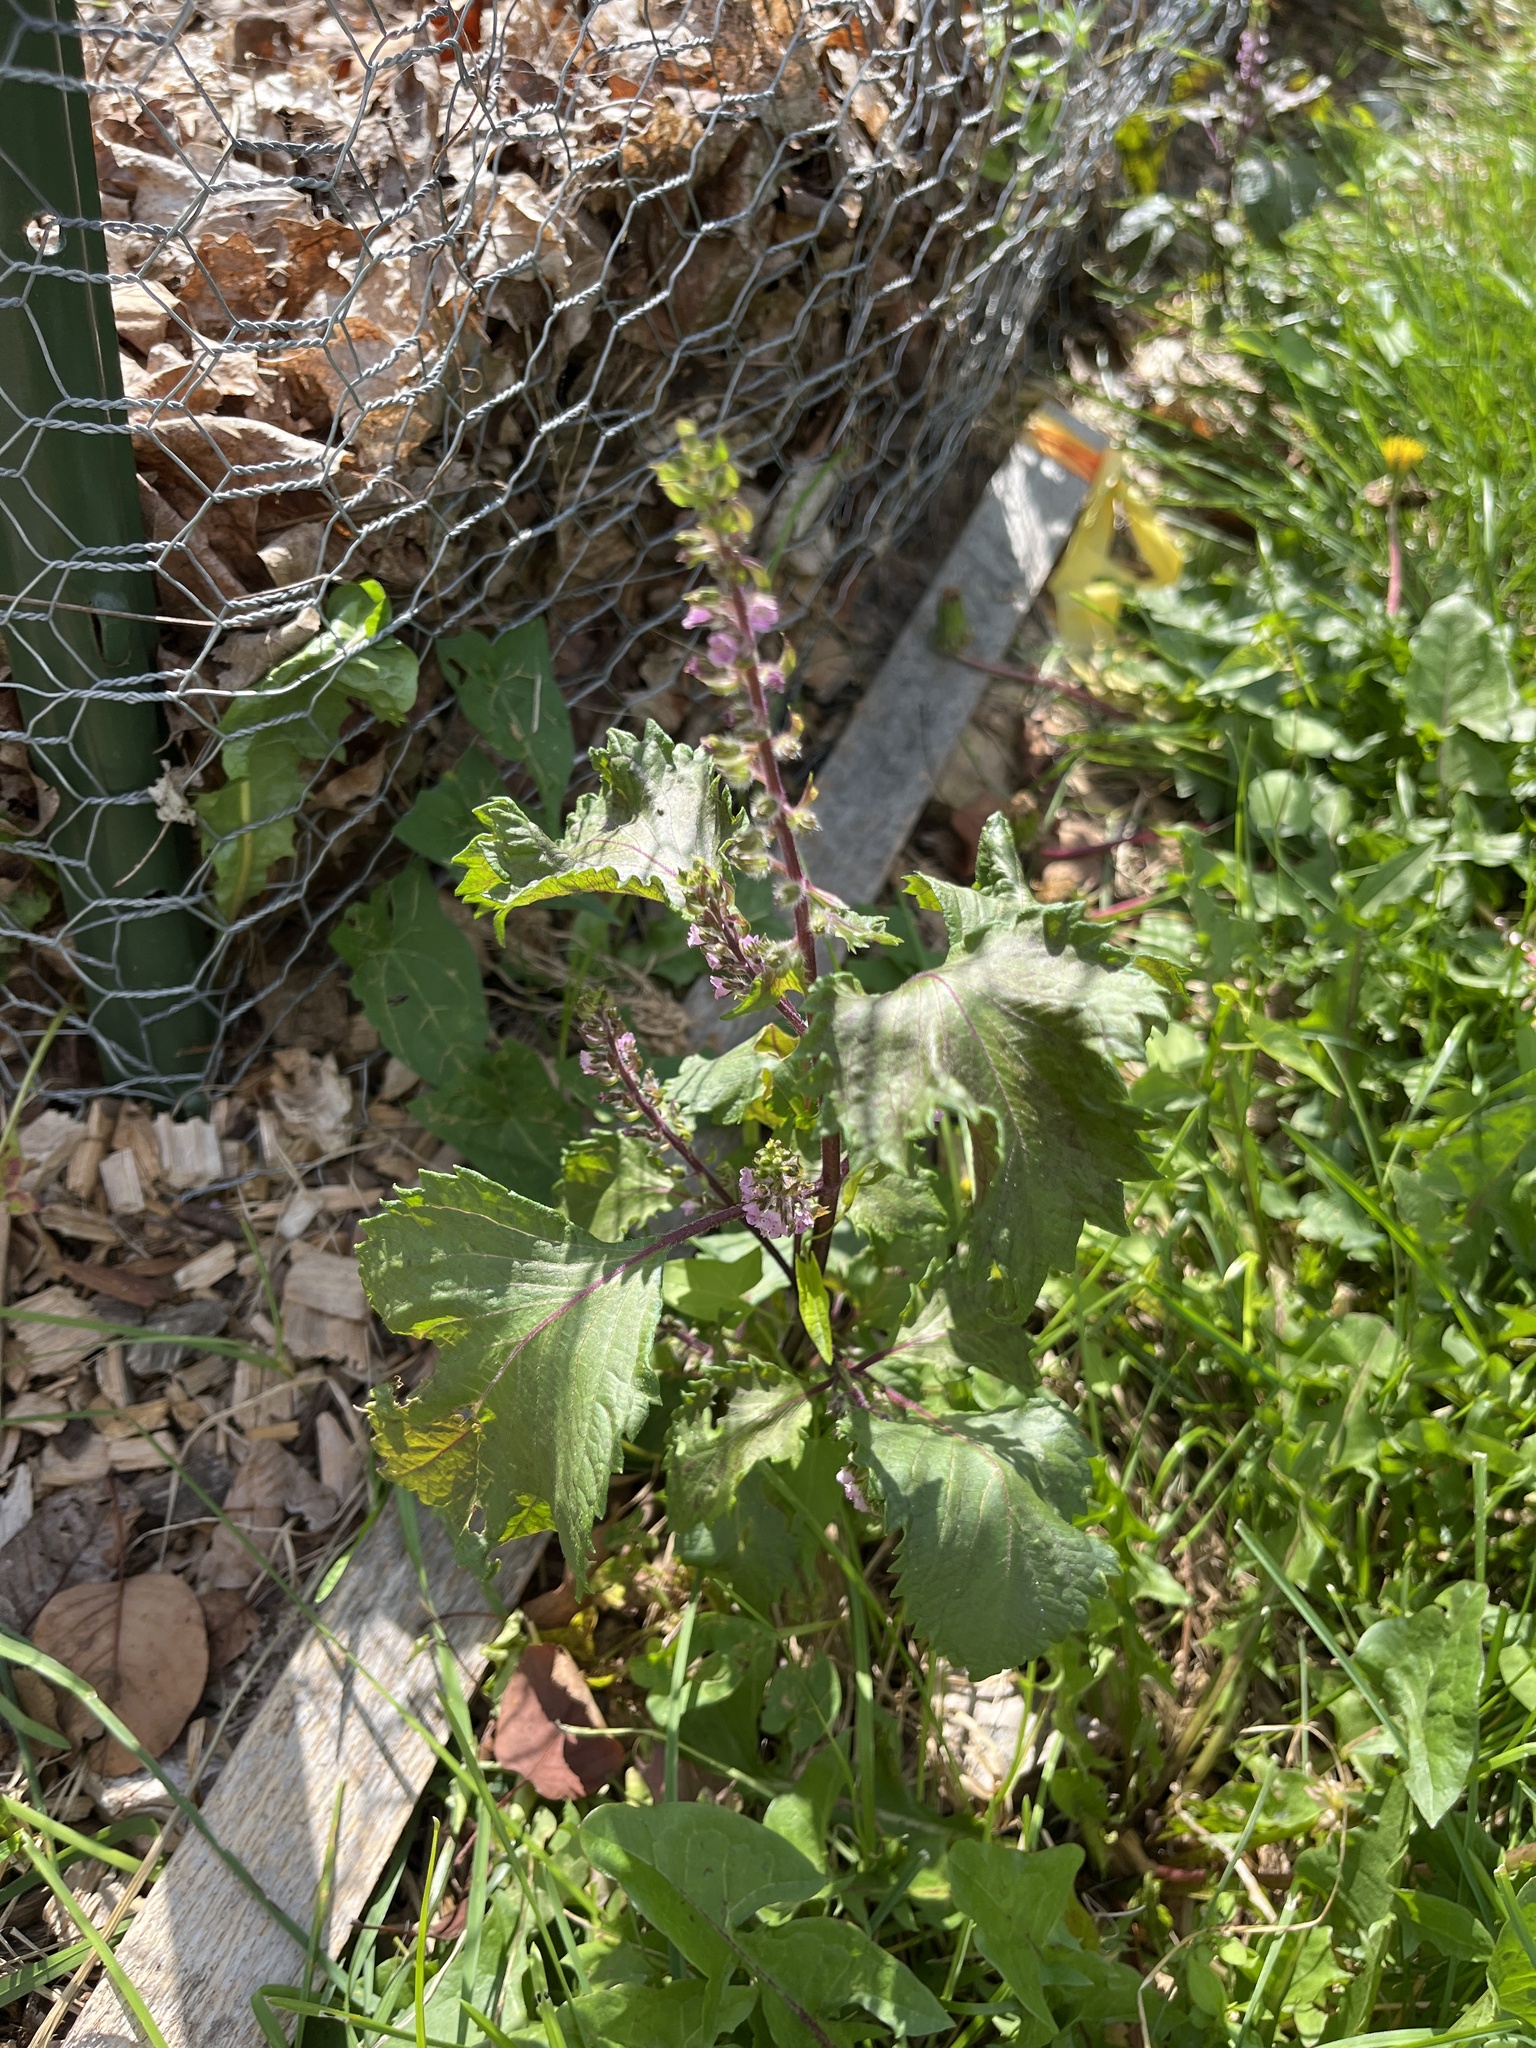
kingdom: Plantae
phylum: Tracheophyta
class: Magnoliopsida
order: Lamiales
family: Lamiaceae
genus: Perilla
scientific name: Perilla frutescens
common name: Perilla
